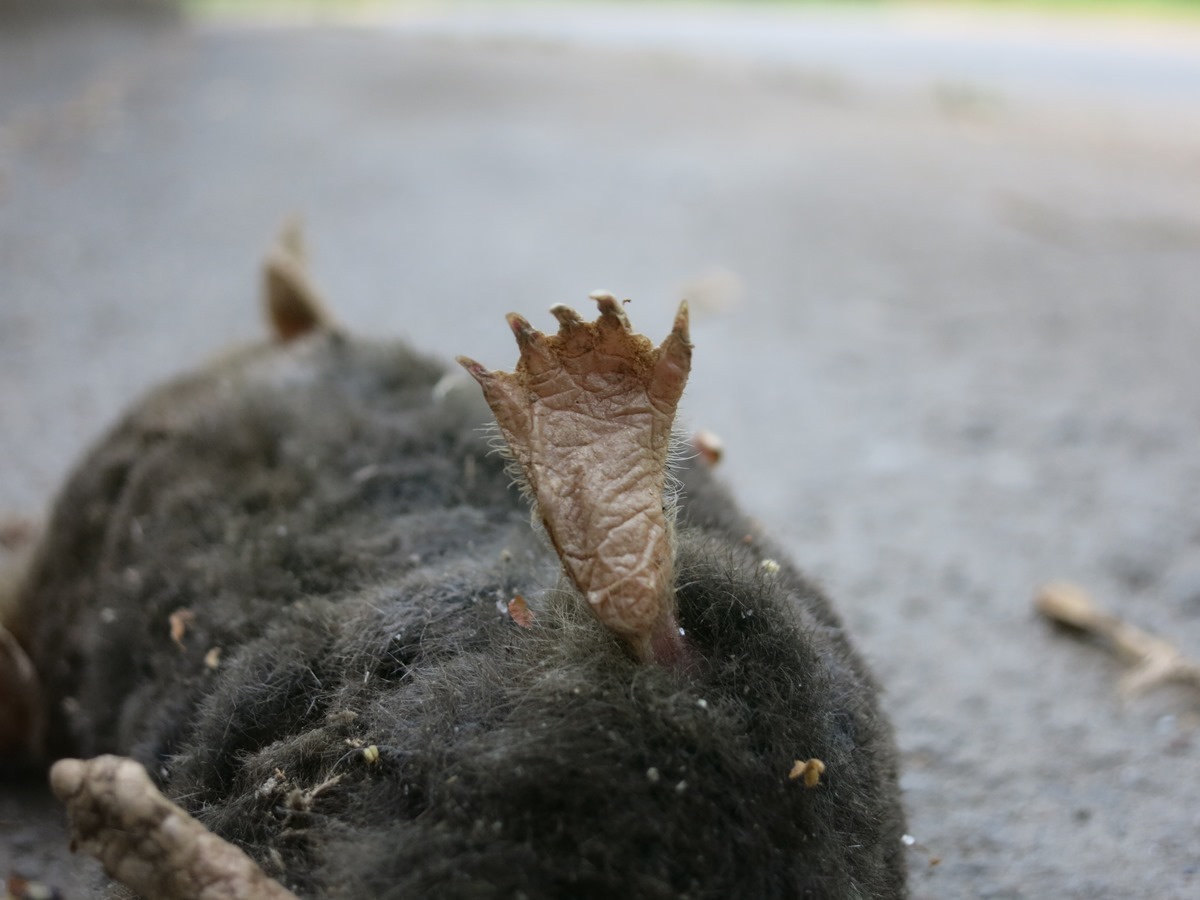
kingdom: Animalia
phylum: Chordata
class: Mammalia
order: Soricomorpha
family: Talpidae
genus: Scalopus
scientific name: Scalopus aquaticus
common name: Eastern mole
